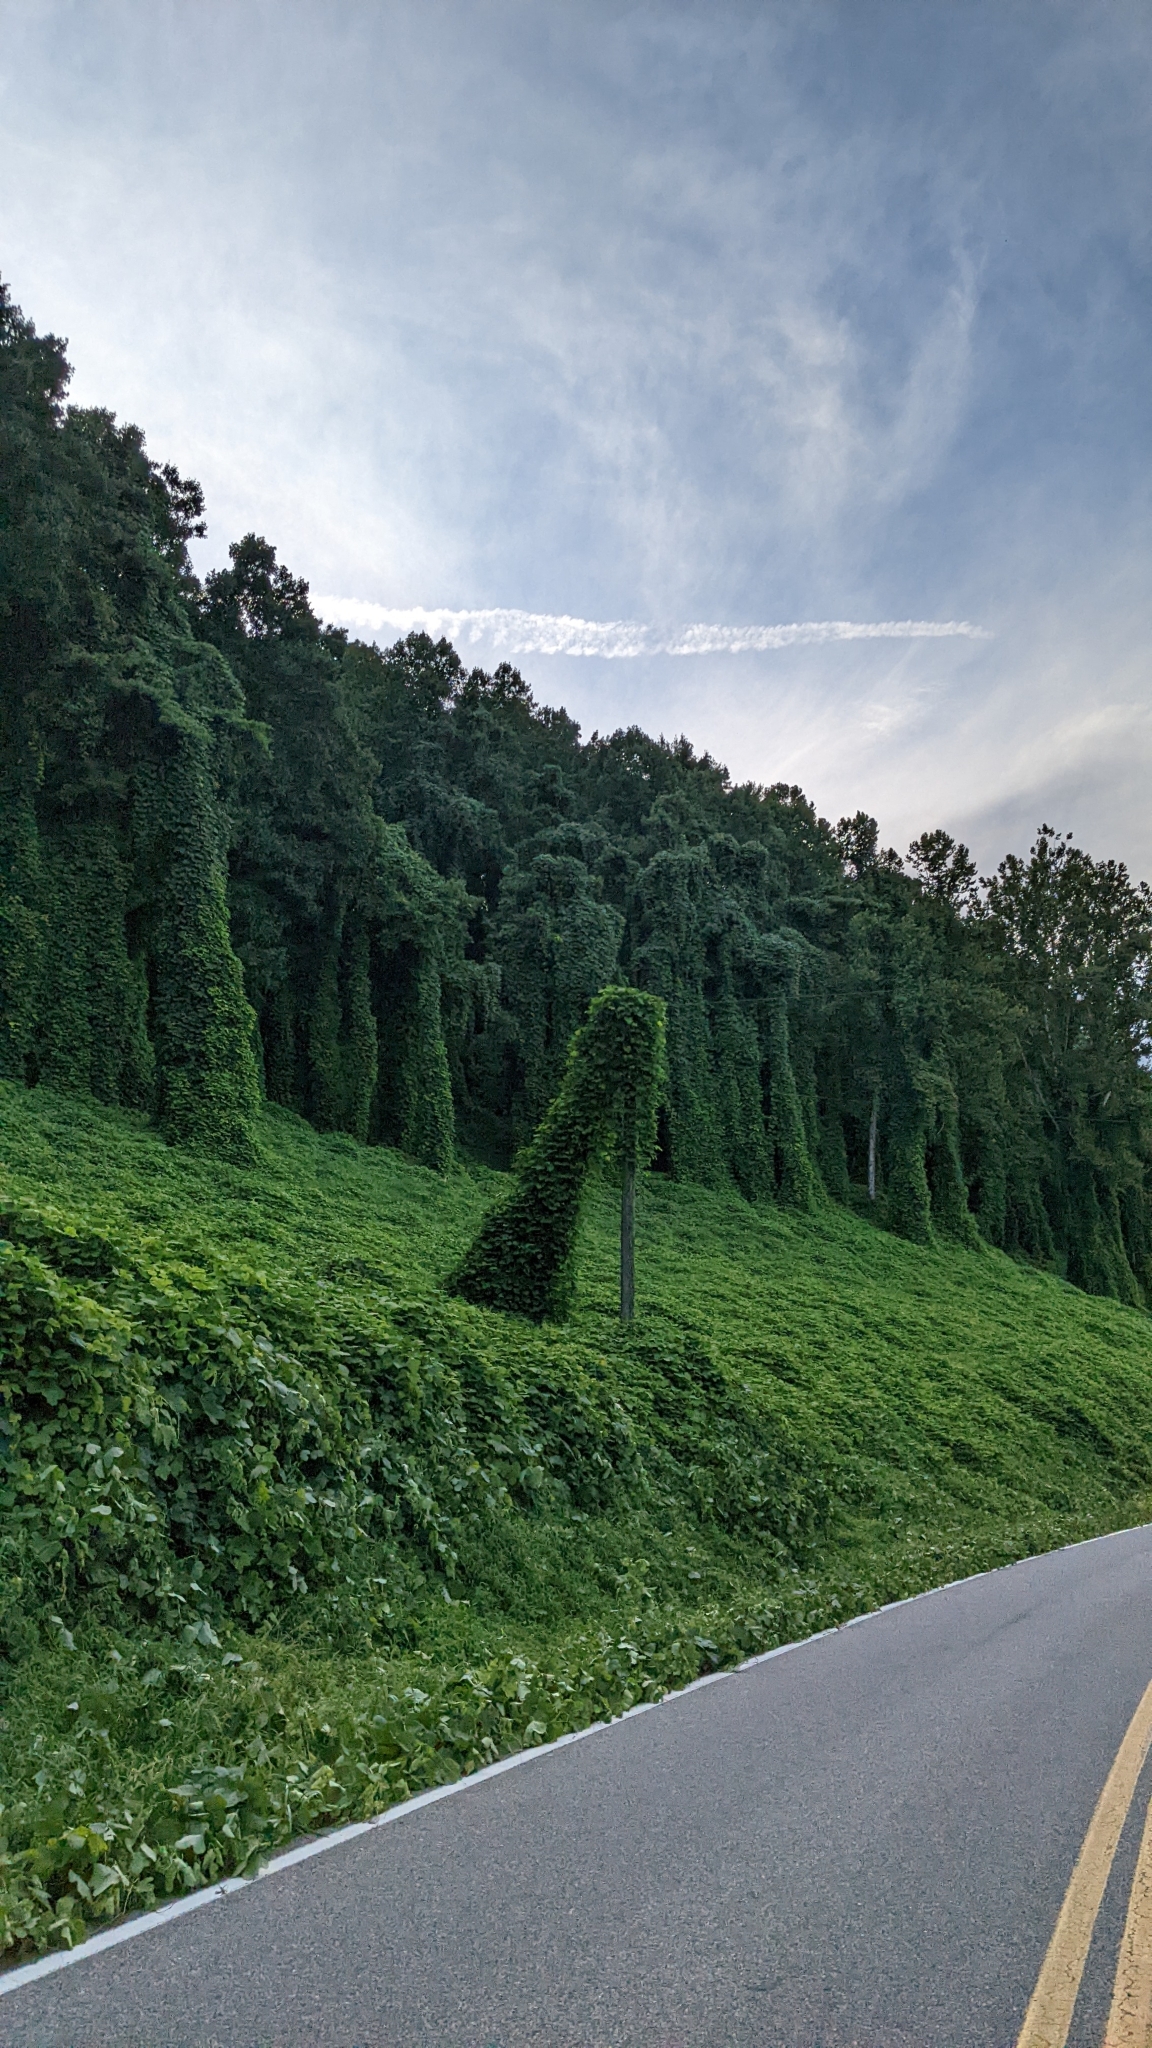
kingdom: Plantae
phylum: Tracheophyta
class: Magnoliopsida
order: Fabales
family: Fabaceae
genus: Pueraria
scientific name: Pueraria montana
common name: Kudzu
